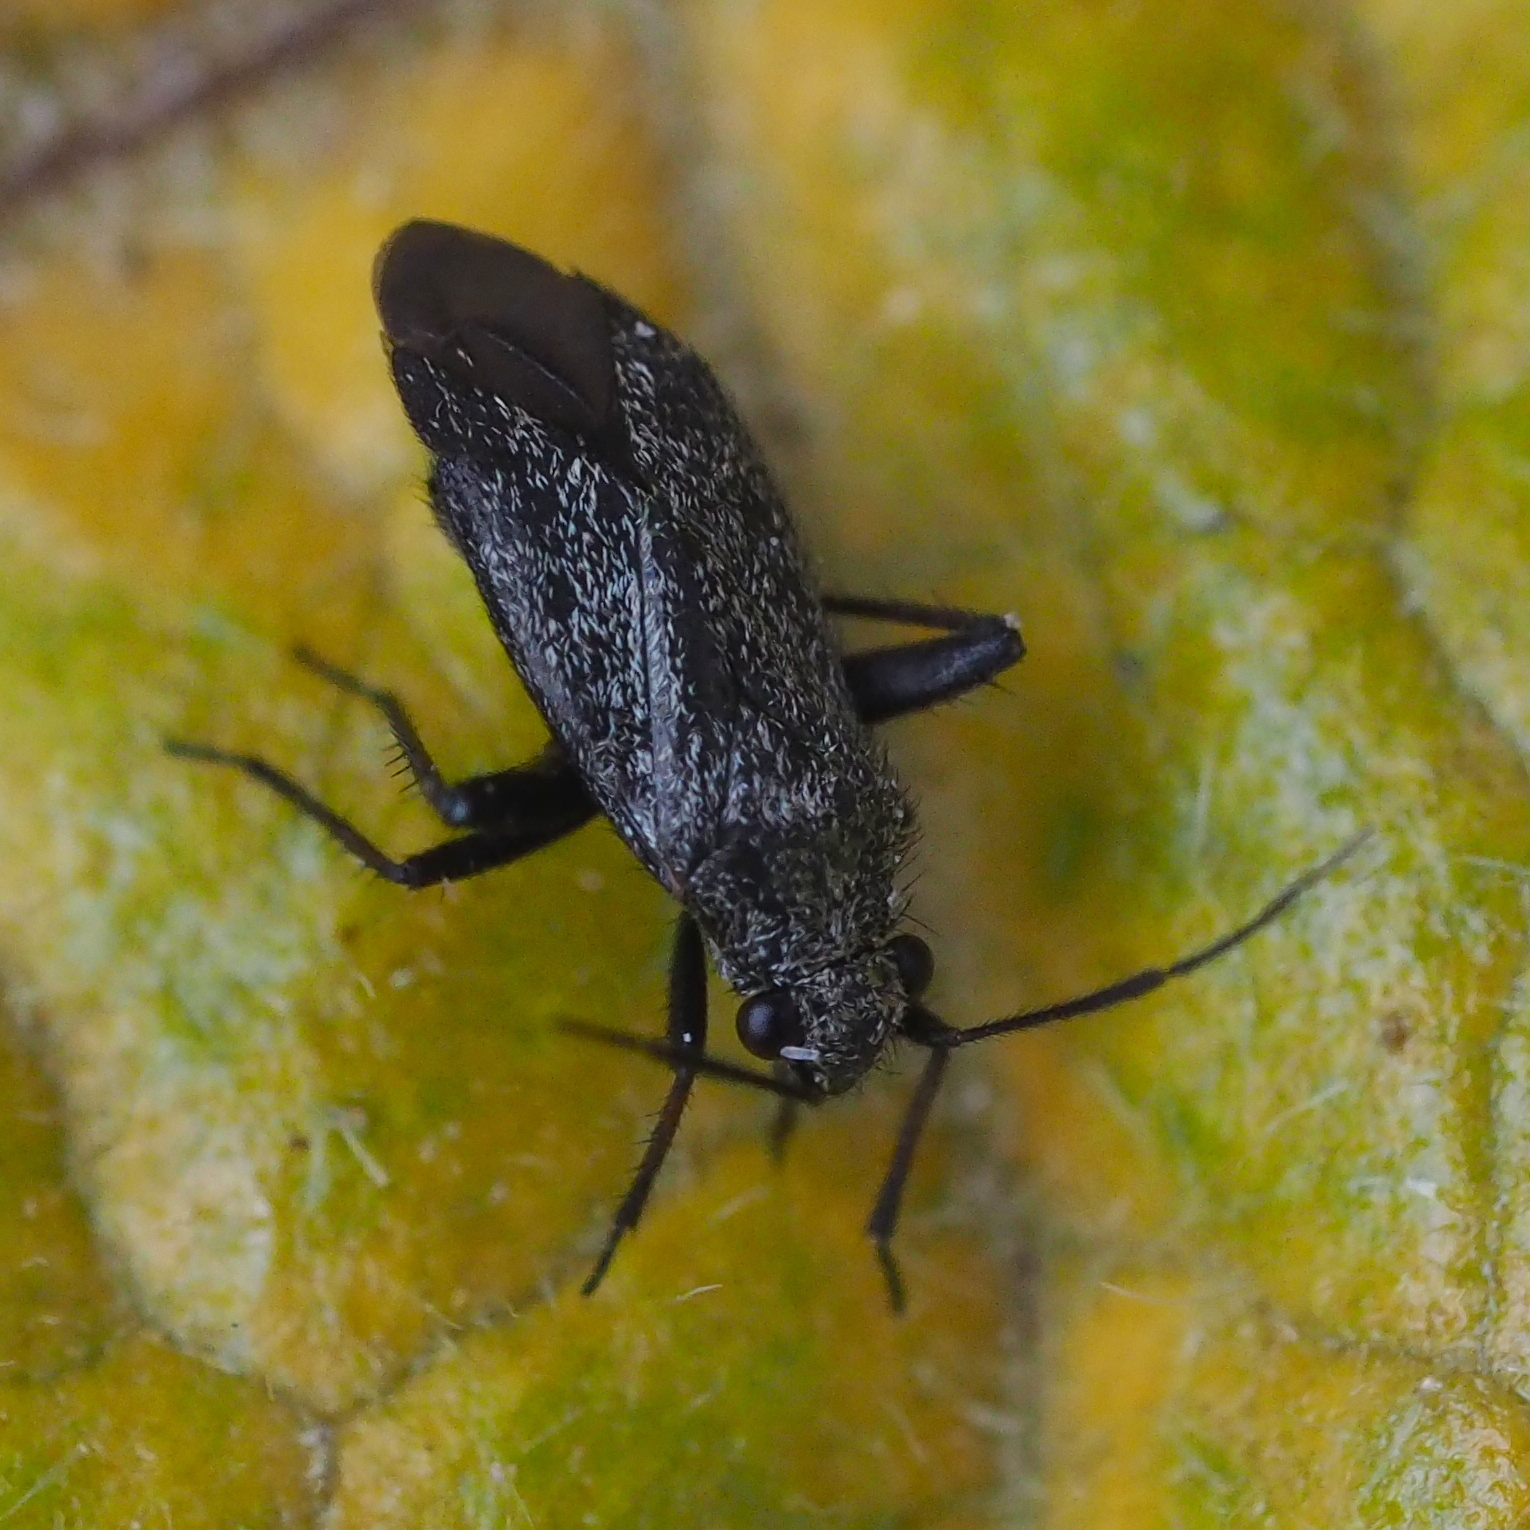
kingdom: Animalia
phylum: Arthropoda
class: Insecta
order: Hemiptera
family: Miridae
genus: Orthocephalus
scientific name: Orthocephalus coriaceus
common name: Plant bug
